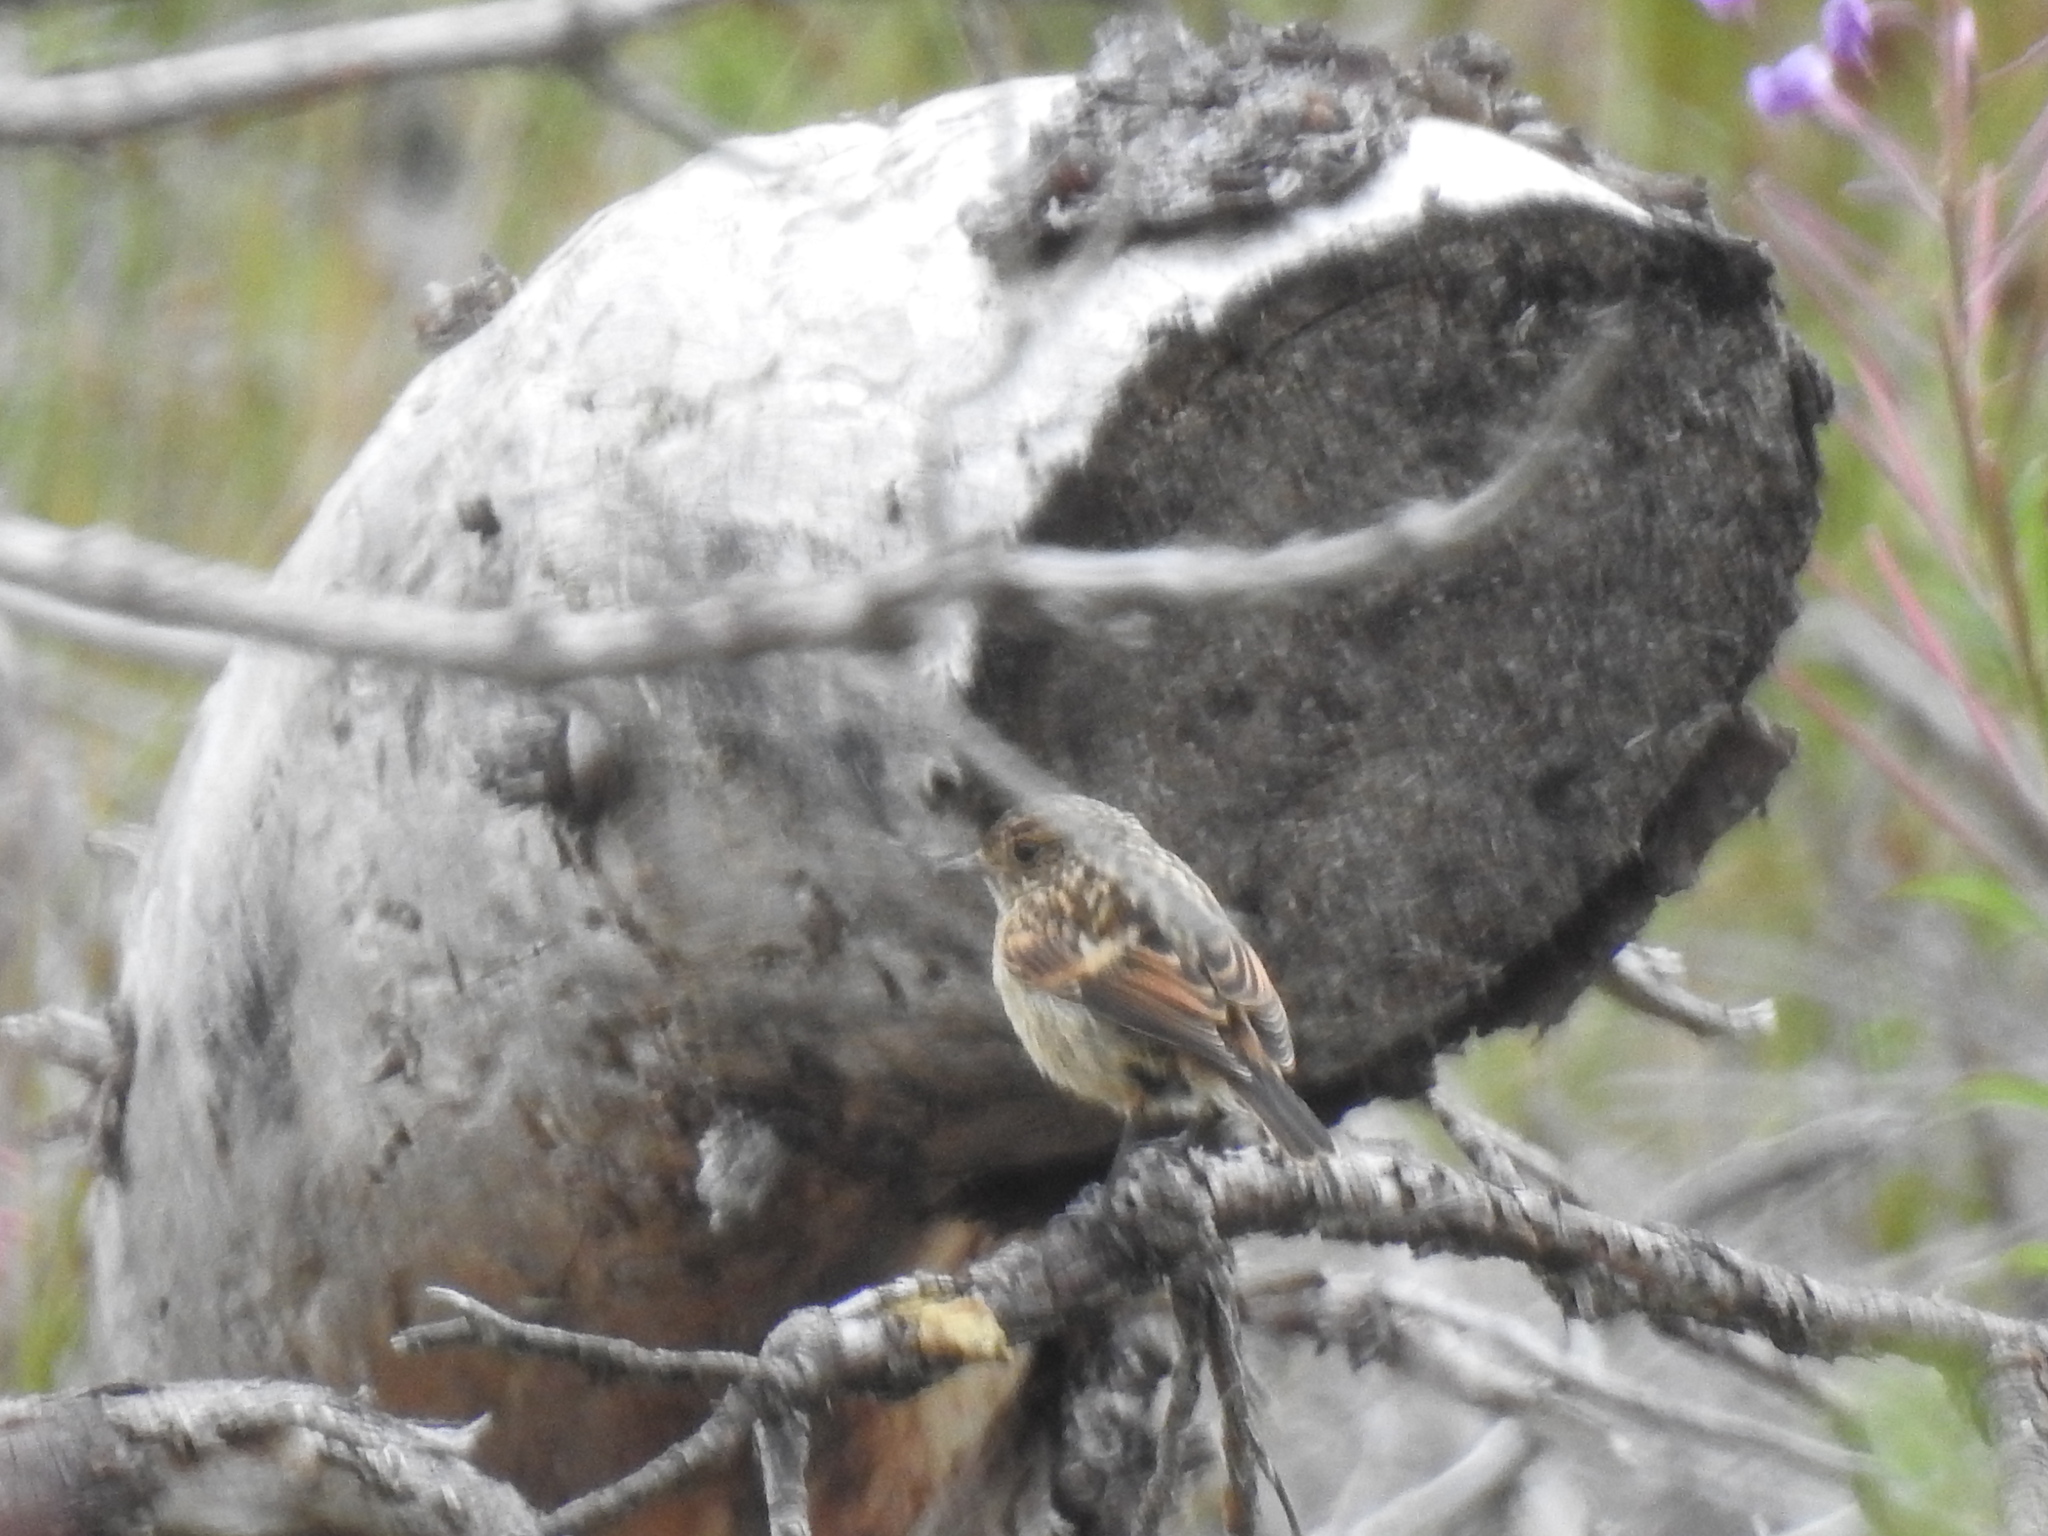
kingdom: Animalia
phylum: Chordata
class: Aves
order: Passeriformes
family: Muscicapidae
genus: Saxicola
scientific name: Saxicola rubicola
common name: European stonechat
